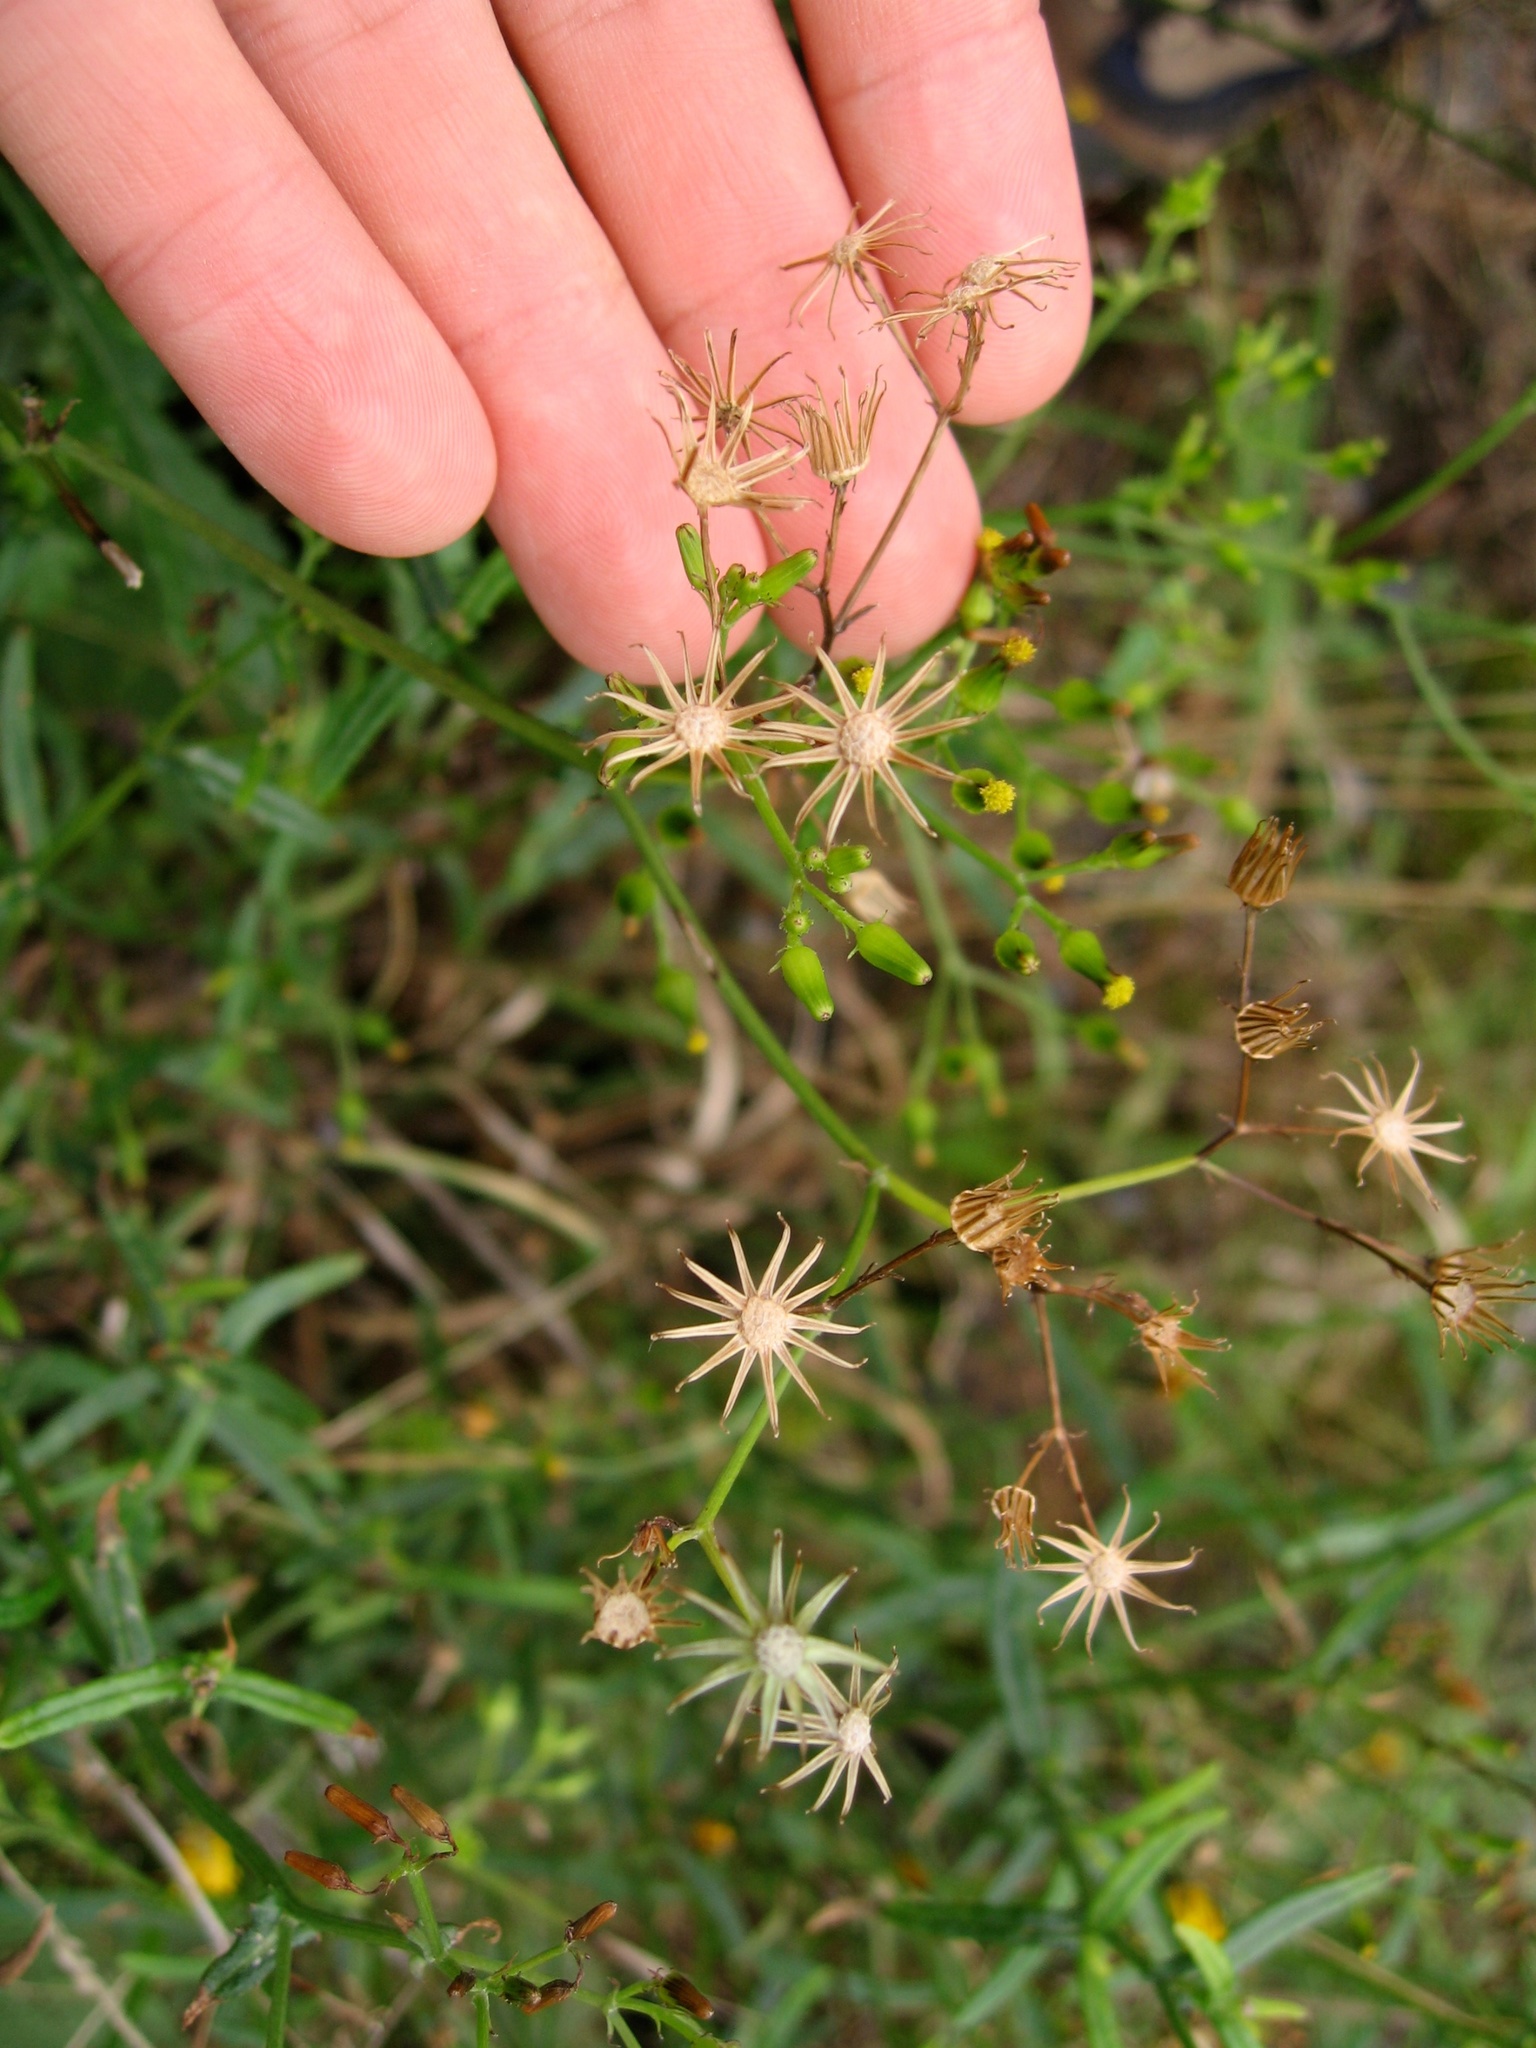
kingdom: Plantae
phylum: Tracheophyta
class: Magnoliopsida
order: Asterales
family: Asteraceae
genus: Senecio
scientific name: Senecio hispidulus
